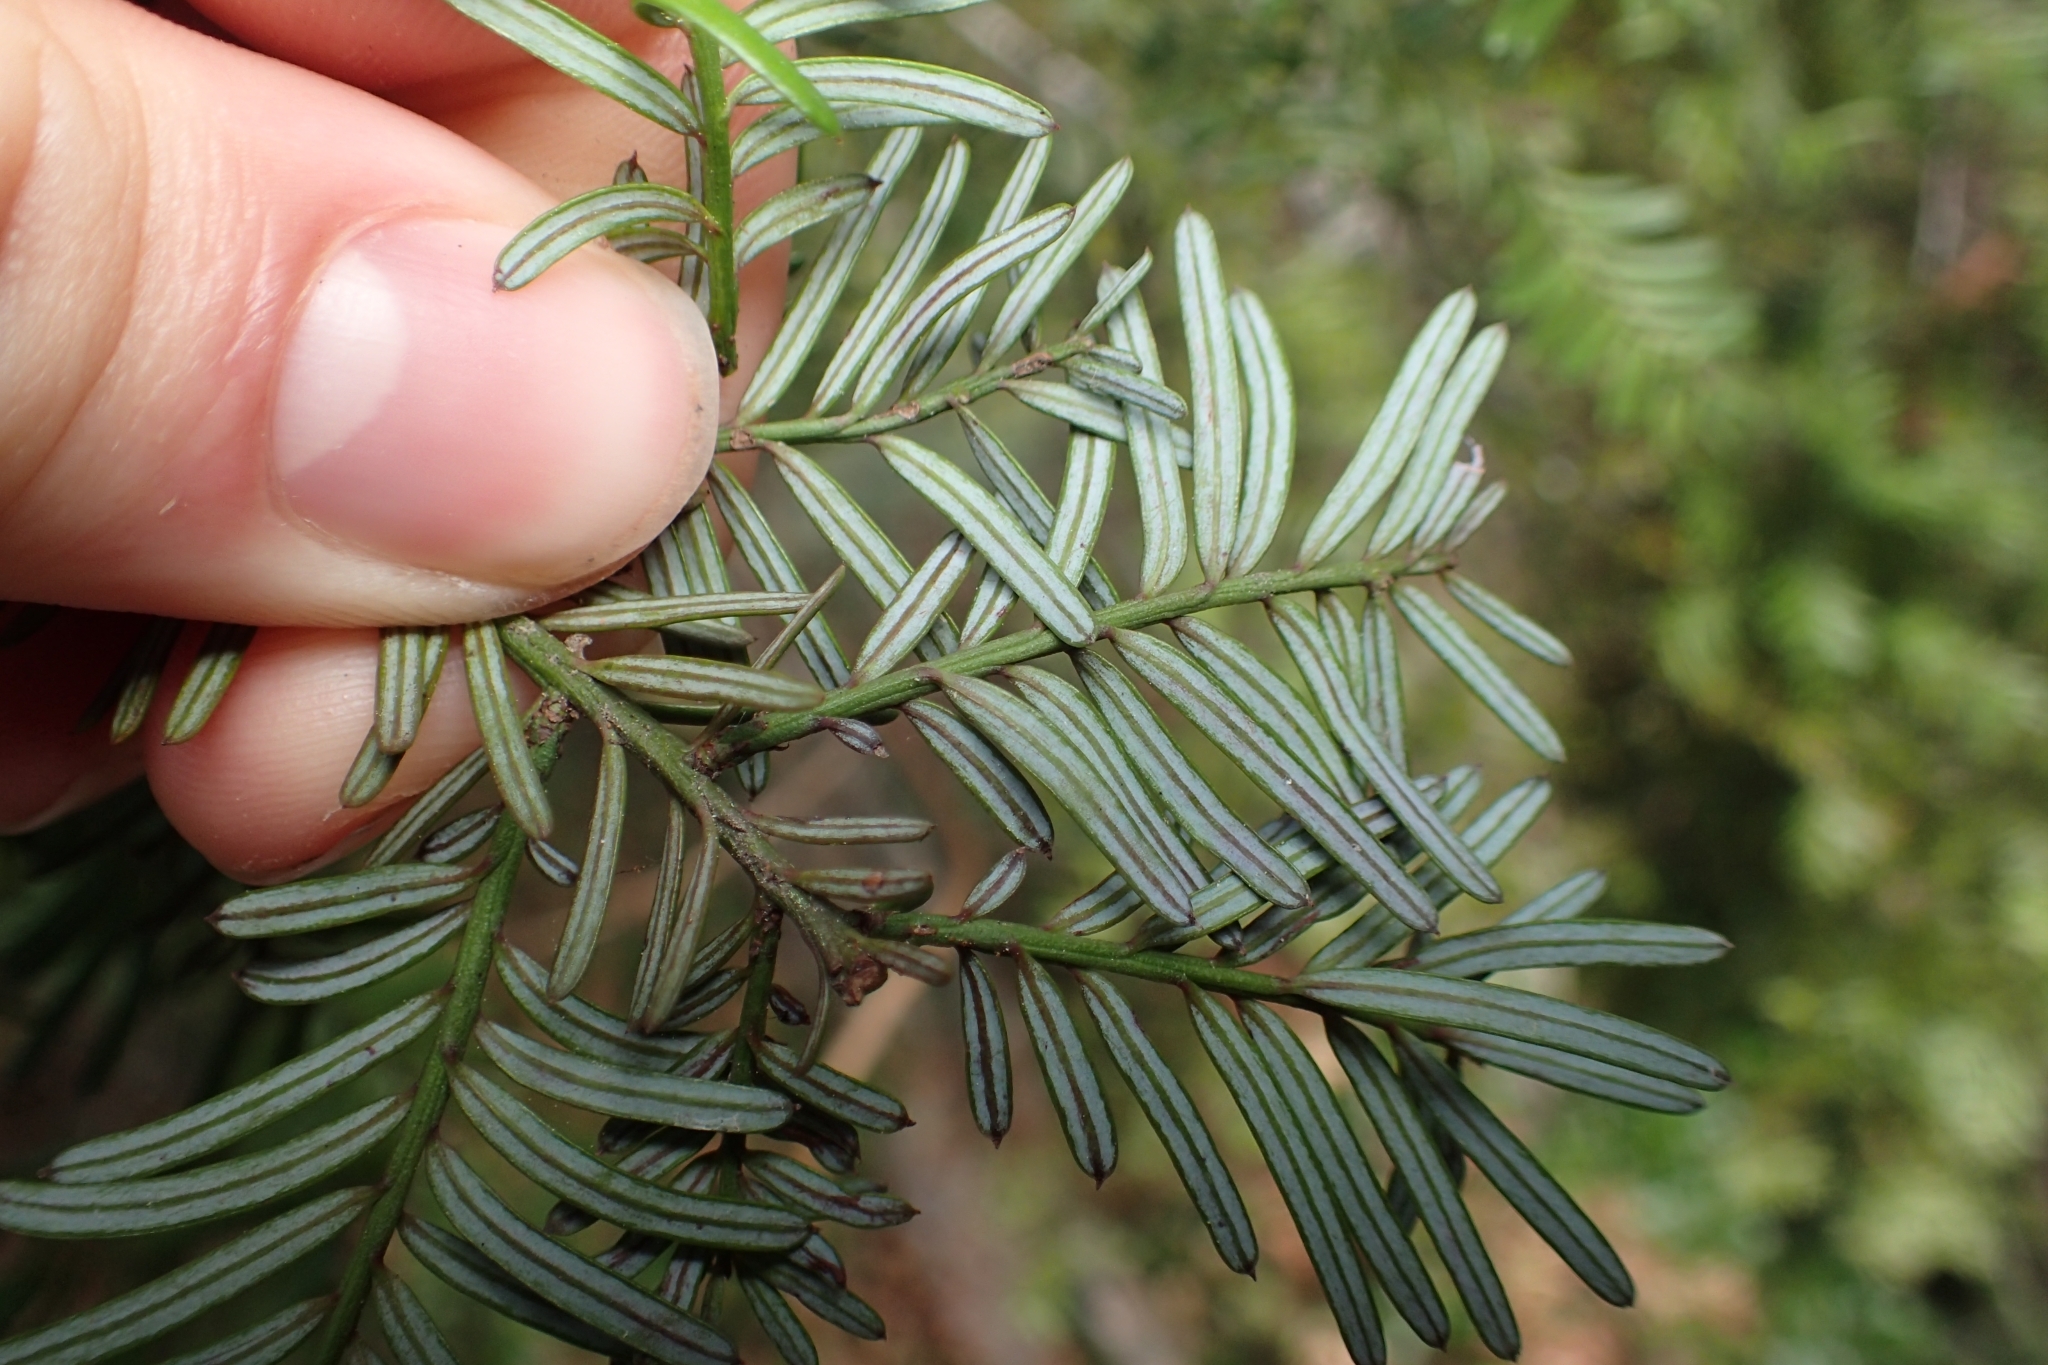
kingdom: Plantae
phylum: Tracheophyta
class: Pinopsida
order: Pinales
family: Podocarpaceae
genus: Prumnopitys
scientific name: Prumnopitys taxifolia
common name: Matai
